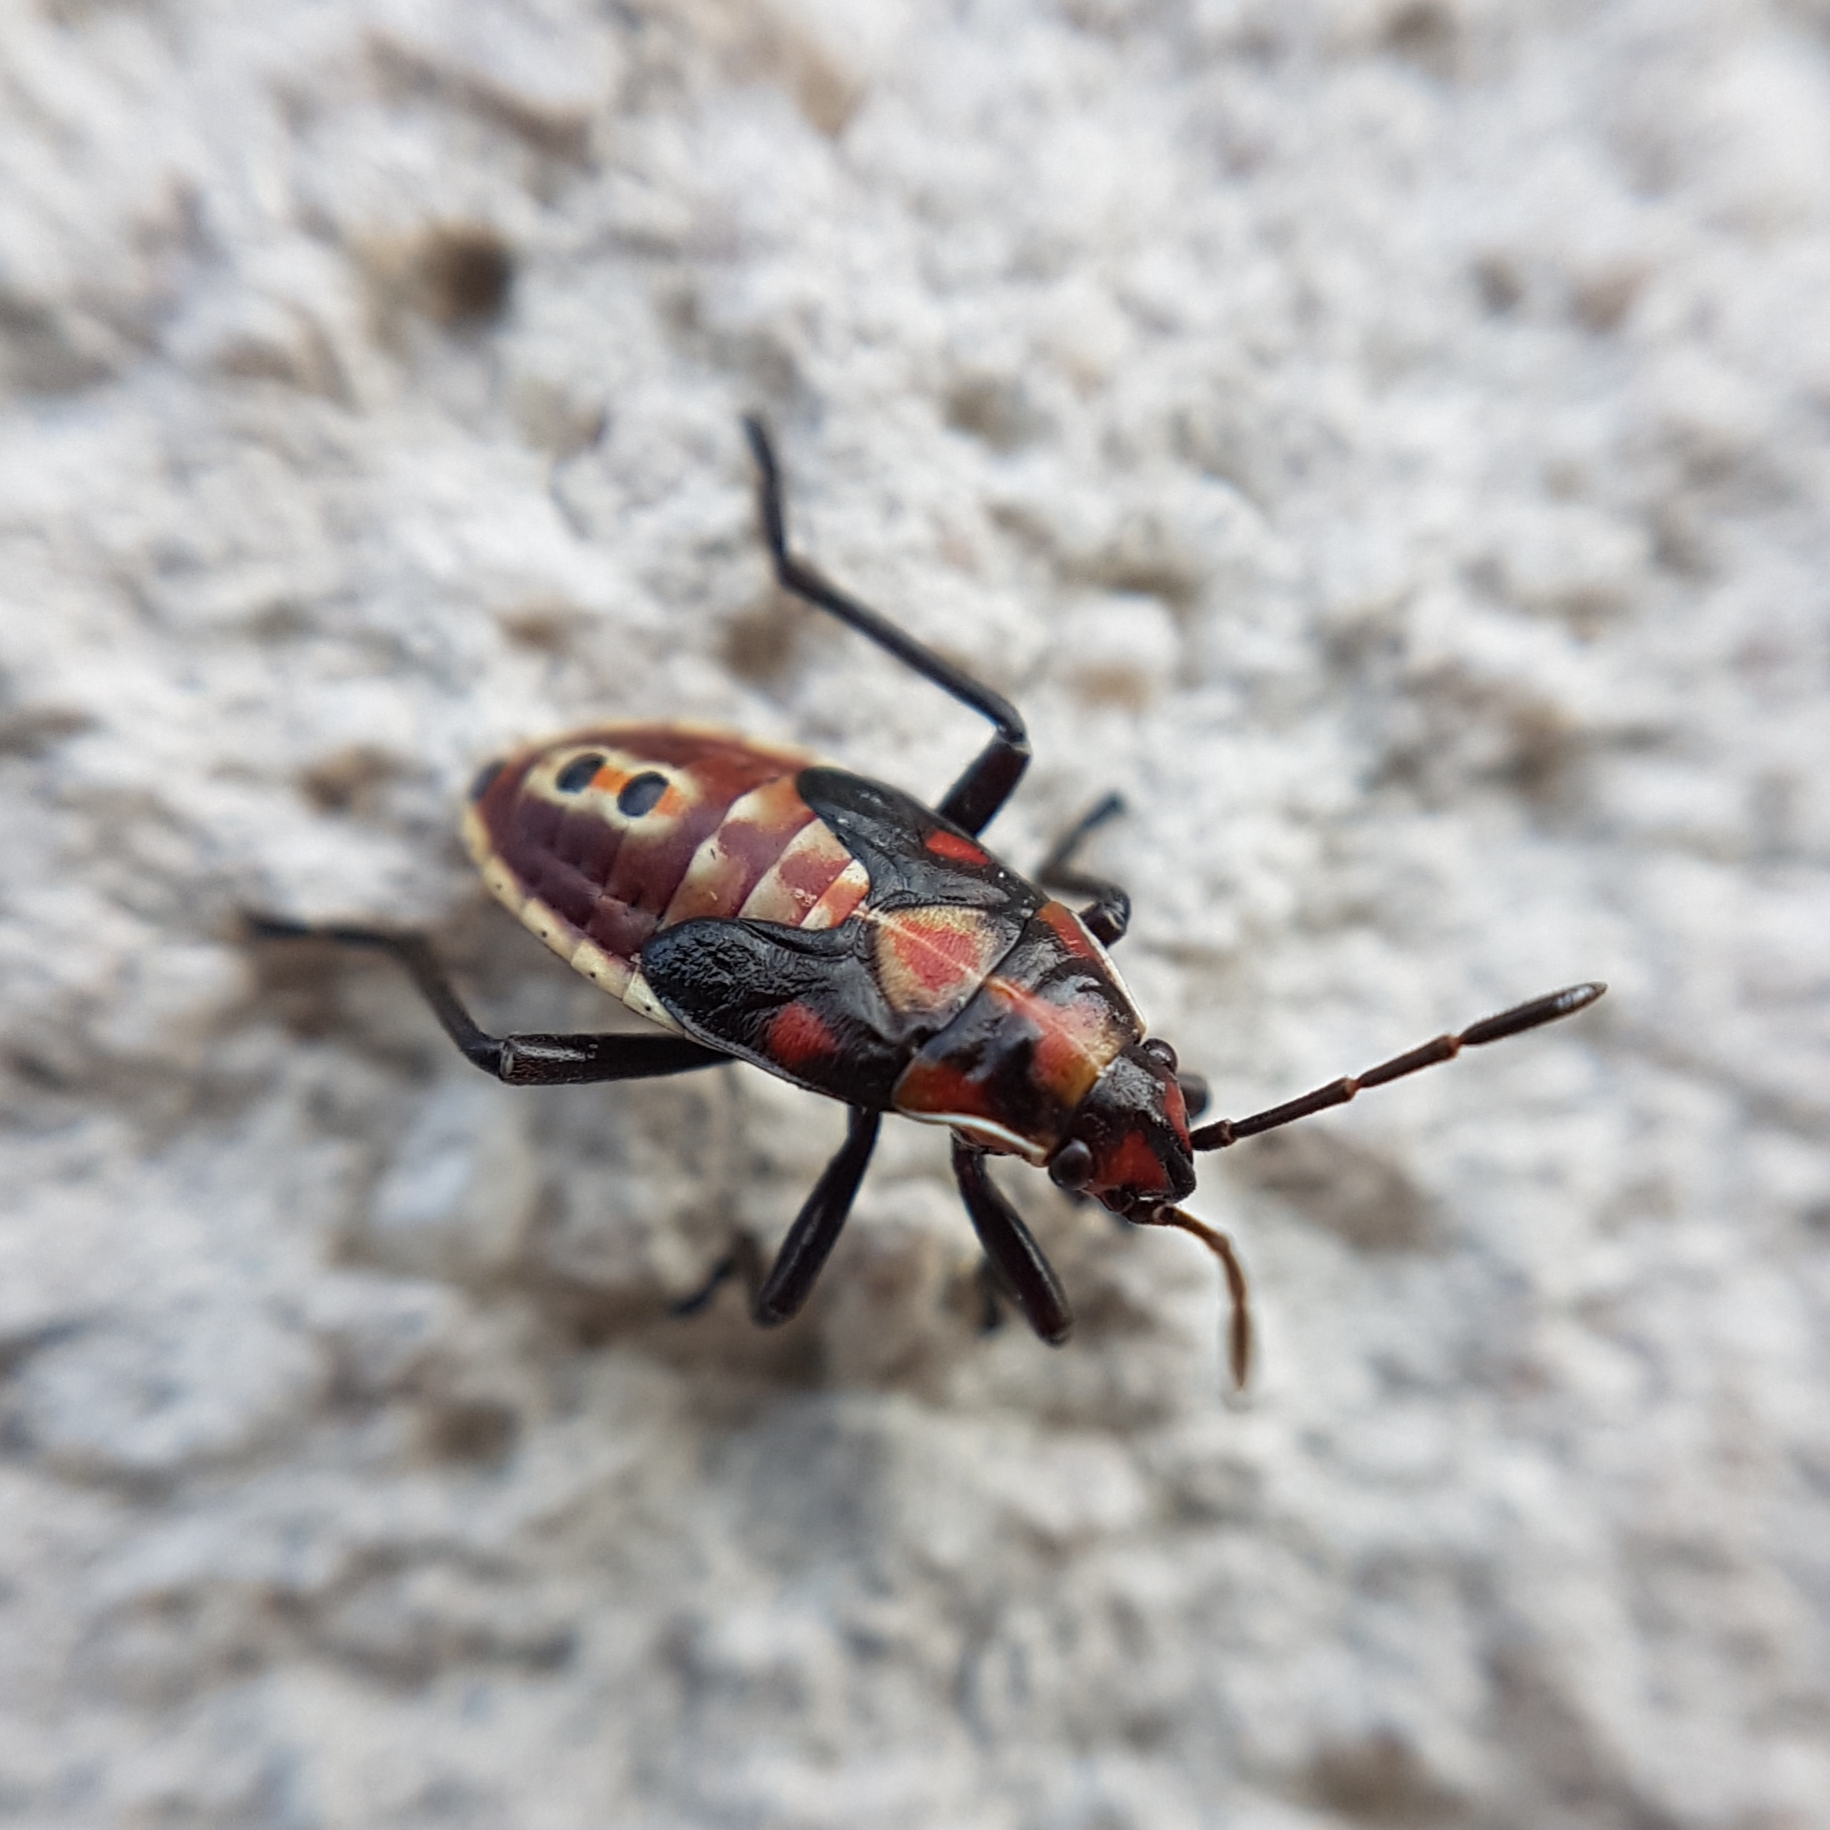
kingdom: Animalia
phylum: Arthropoda
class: Insecta
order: Hemiptera
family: Lygaeidae
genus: Spilostethus
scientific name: Spilostethus pandurus
